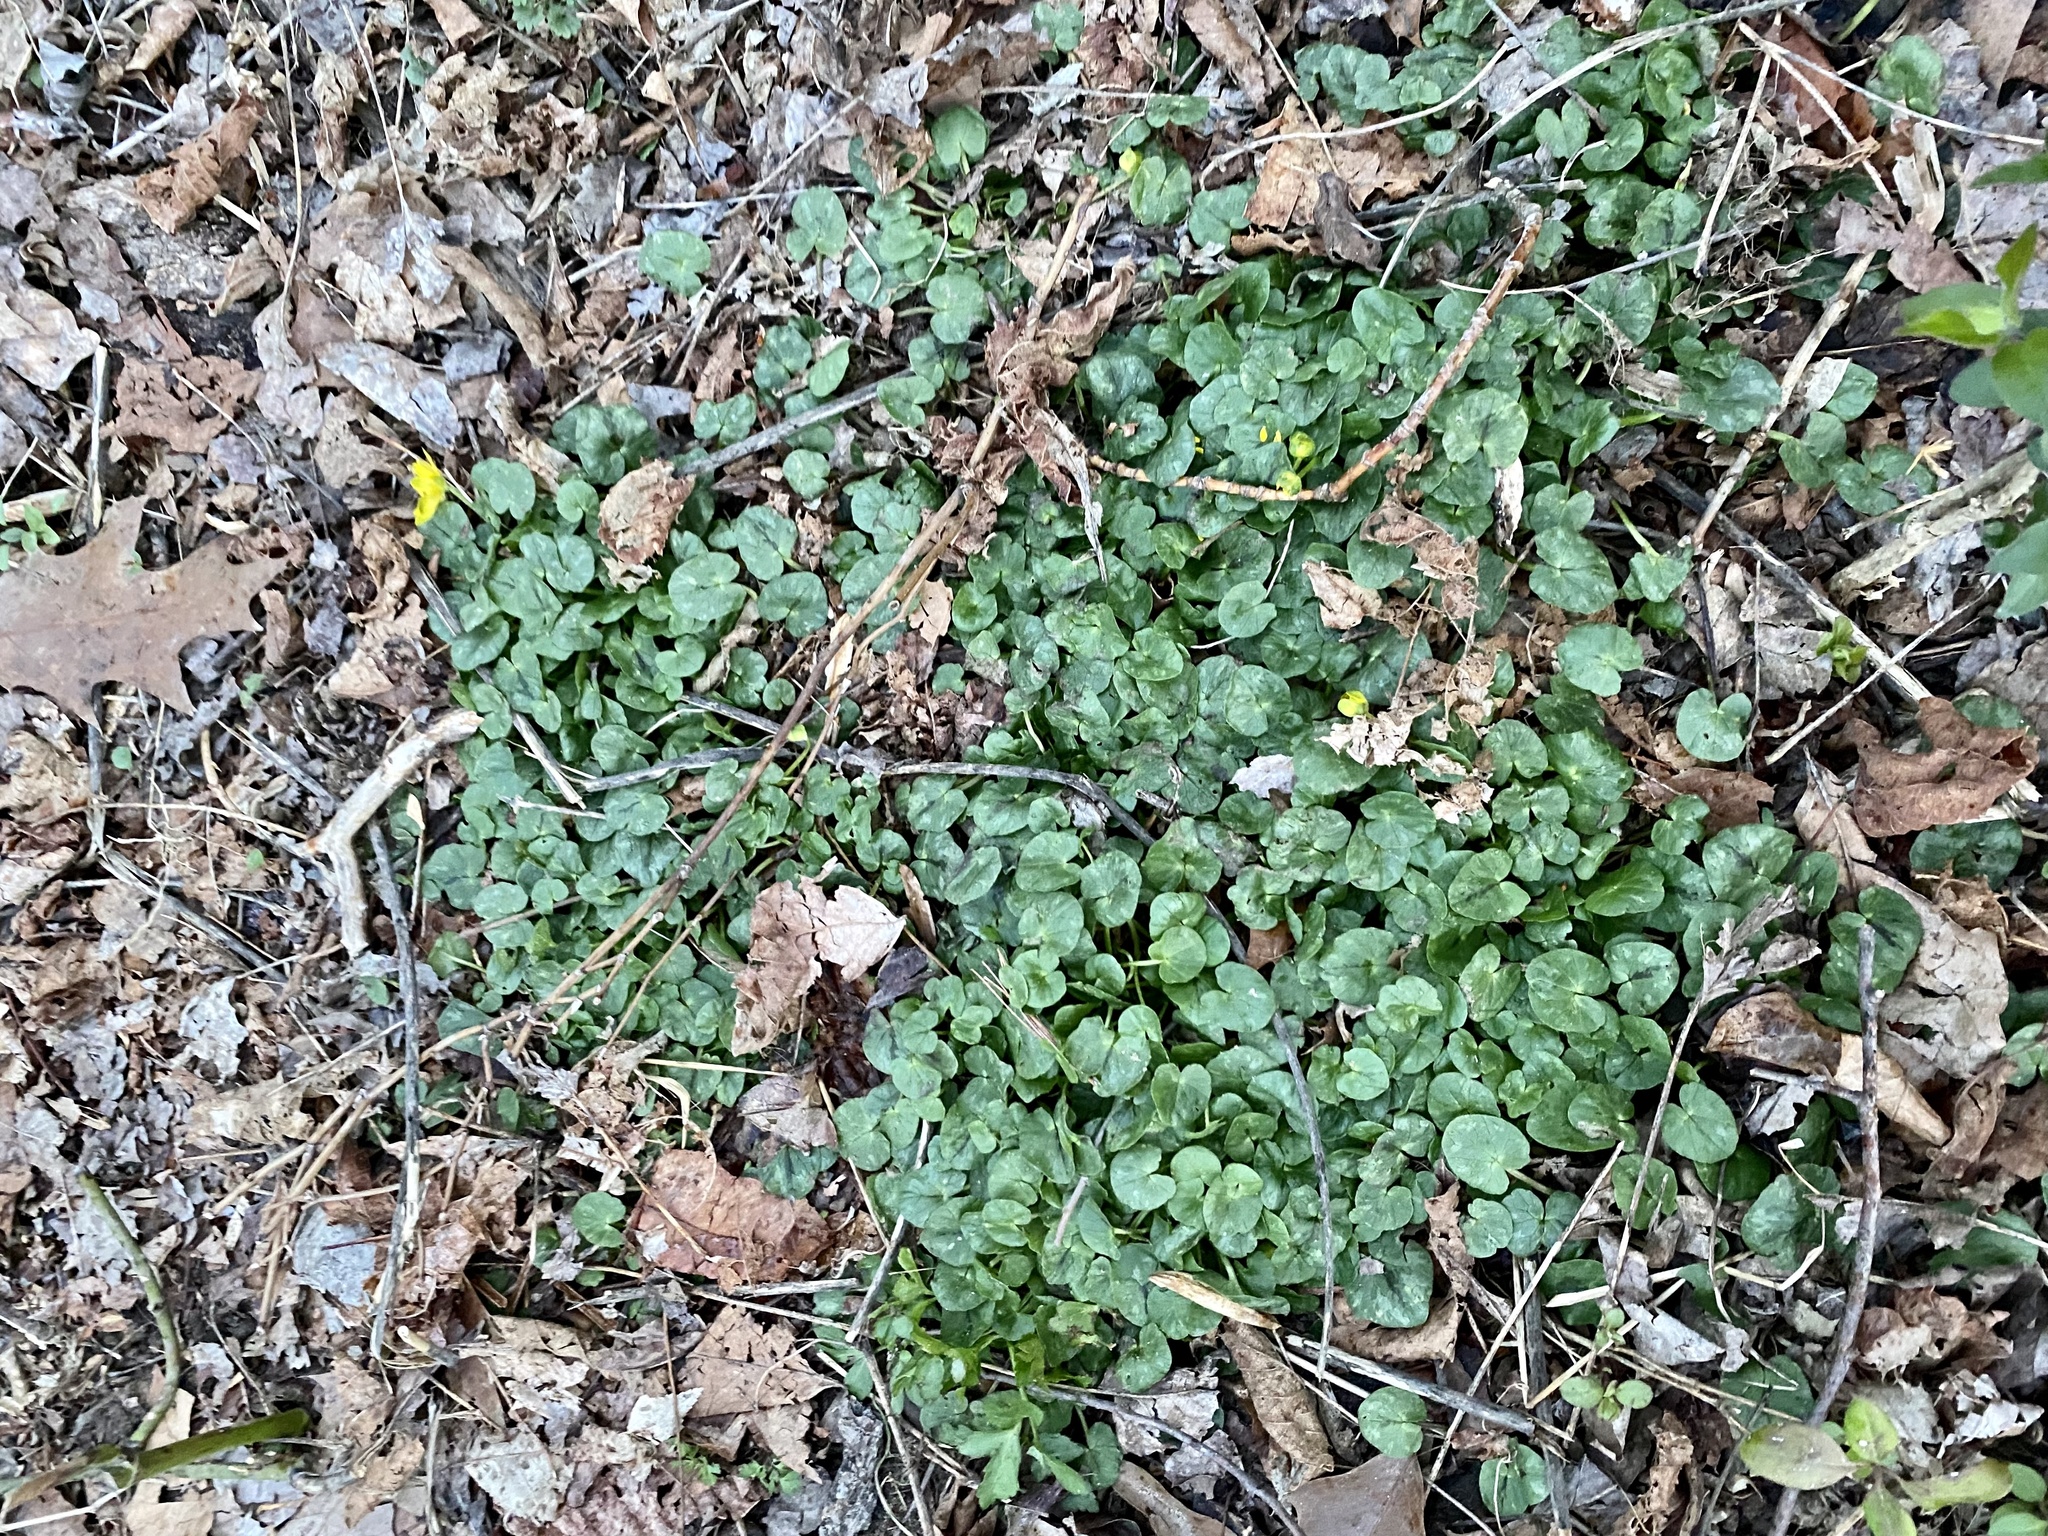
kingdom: Plantae
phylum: Tracheophyta
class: Magnoliopsida
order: Ranunculales
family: Ranunculaceae
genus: Ficaria
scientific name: Ficaria verna
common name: Lesser celandine
